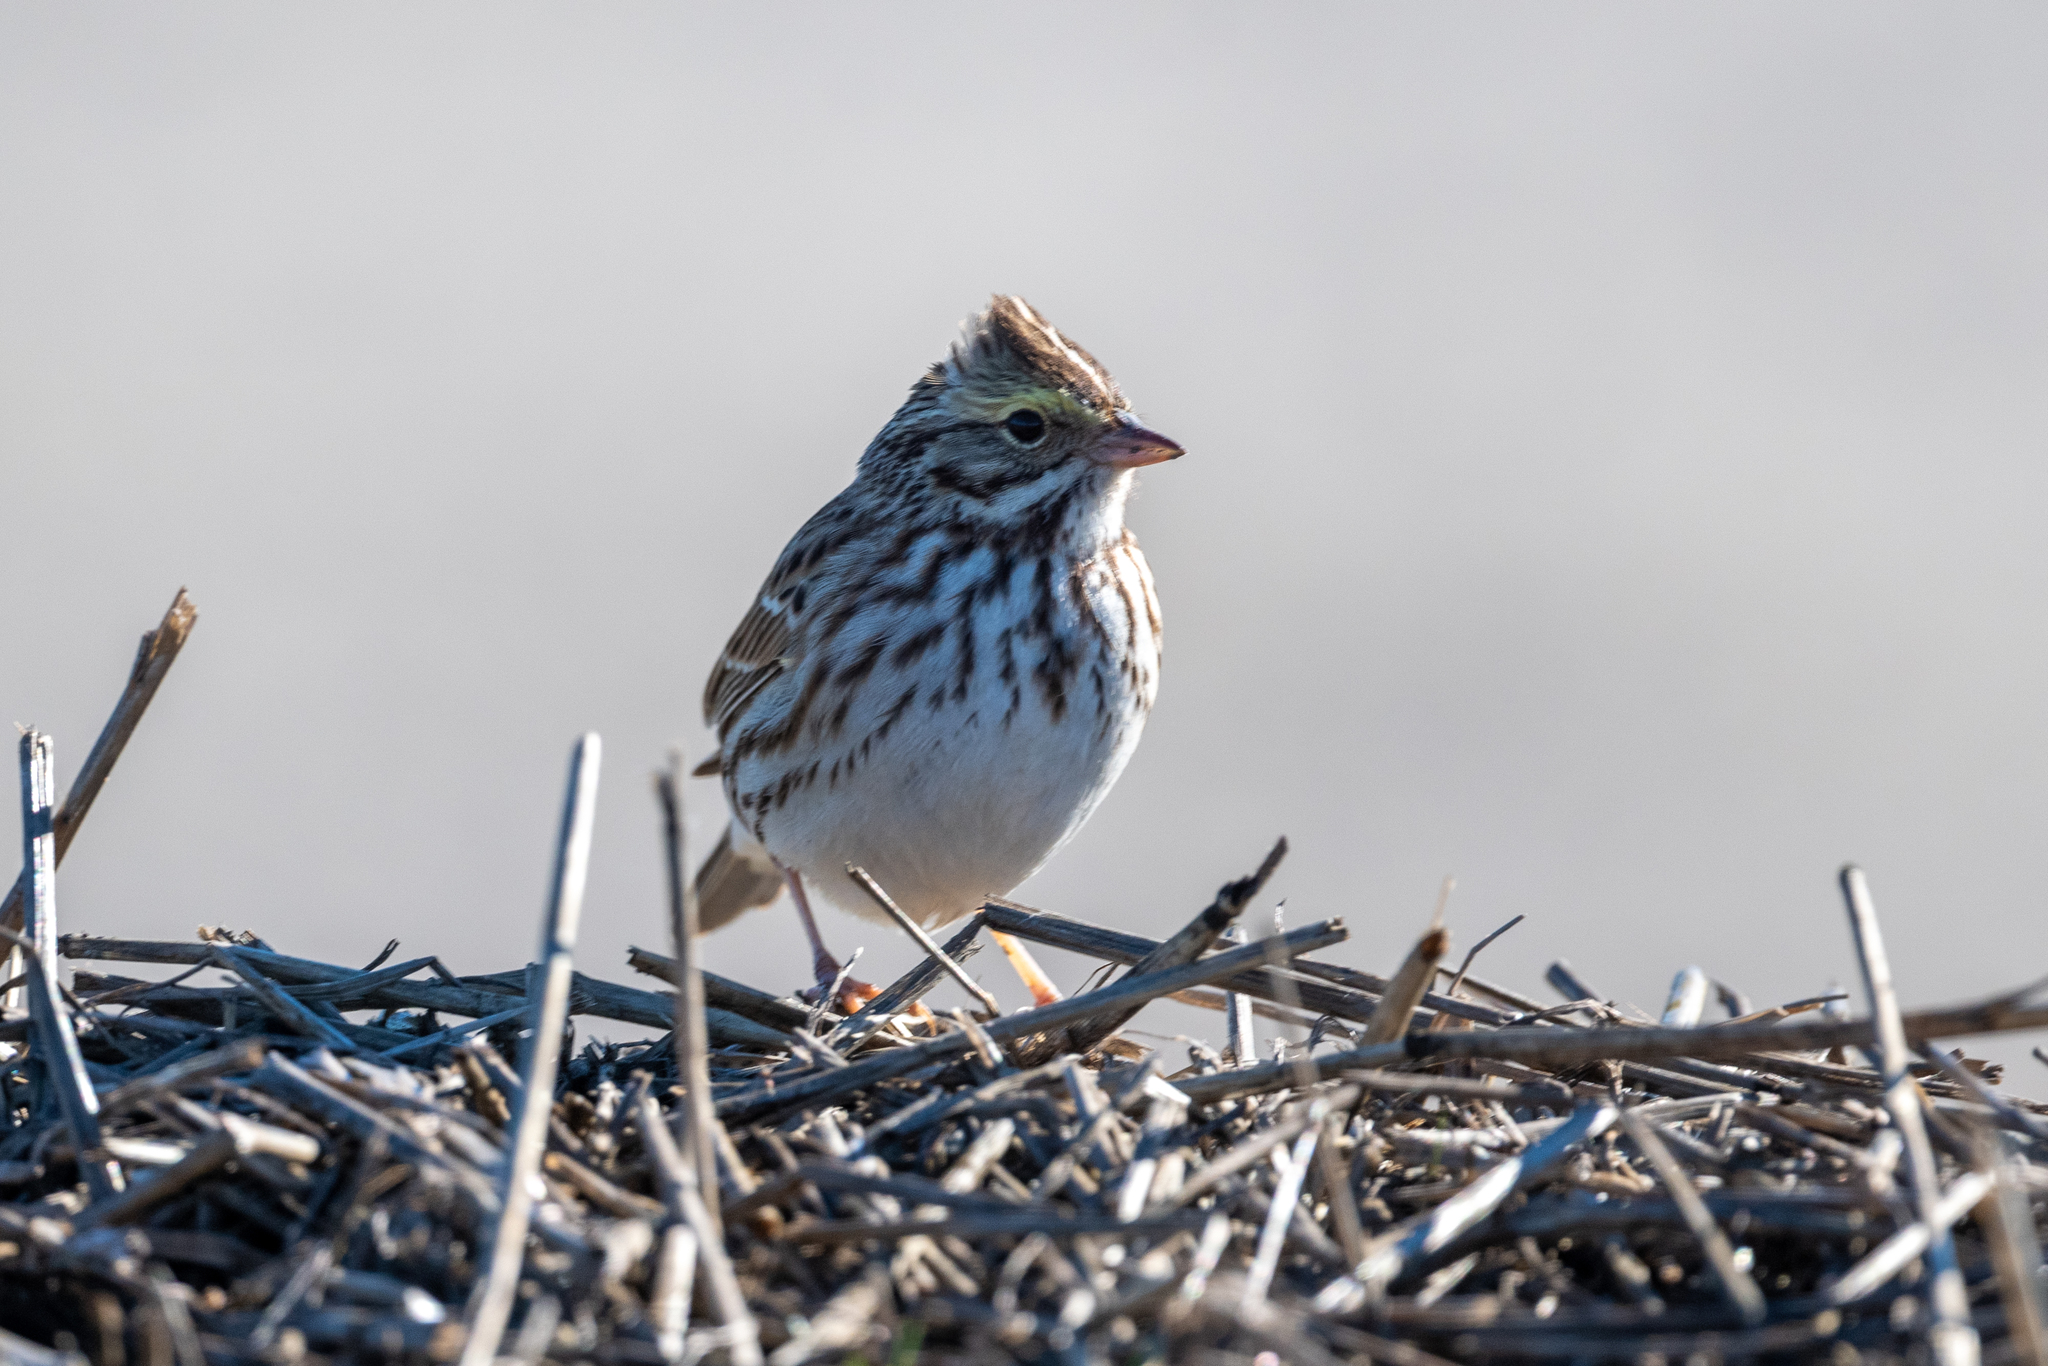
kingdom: Animalia
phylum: Chordata
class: Aves
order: Passeriformes
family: Passerellidae
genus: Passerculus
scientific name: Passerculus sandwichensis
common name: Savannah sparrow
